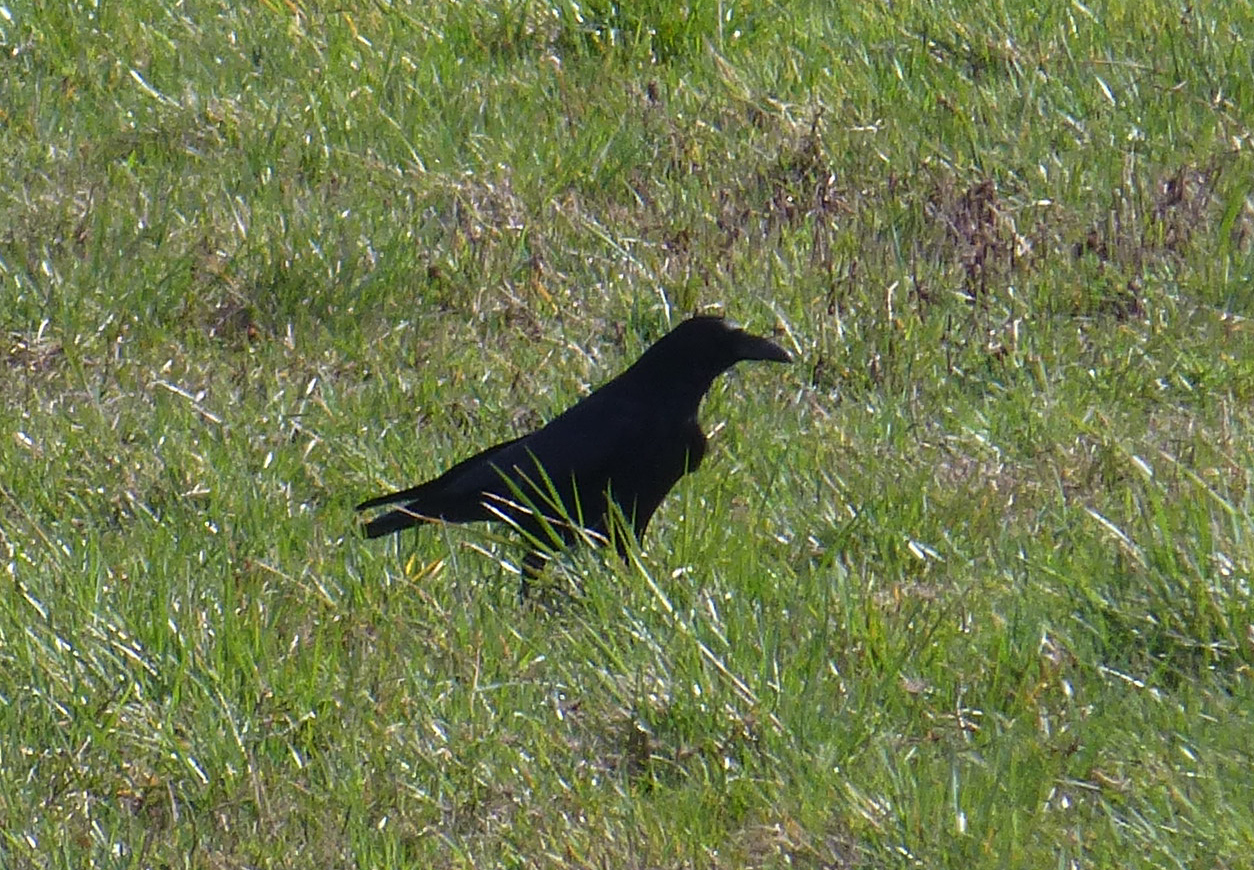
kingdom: Animalia
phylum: Chordata
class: Aves
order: Passeriformes
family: Corvidae
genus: Corvus
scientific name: Corvus corone
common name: Carrion crow
